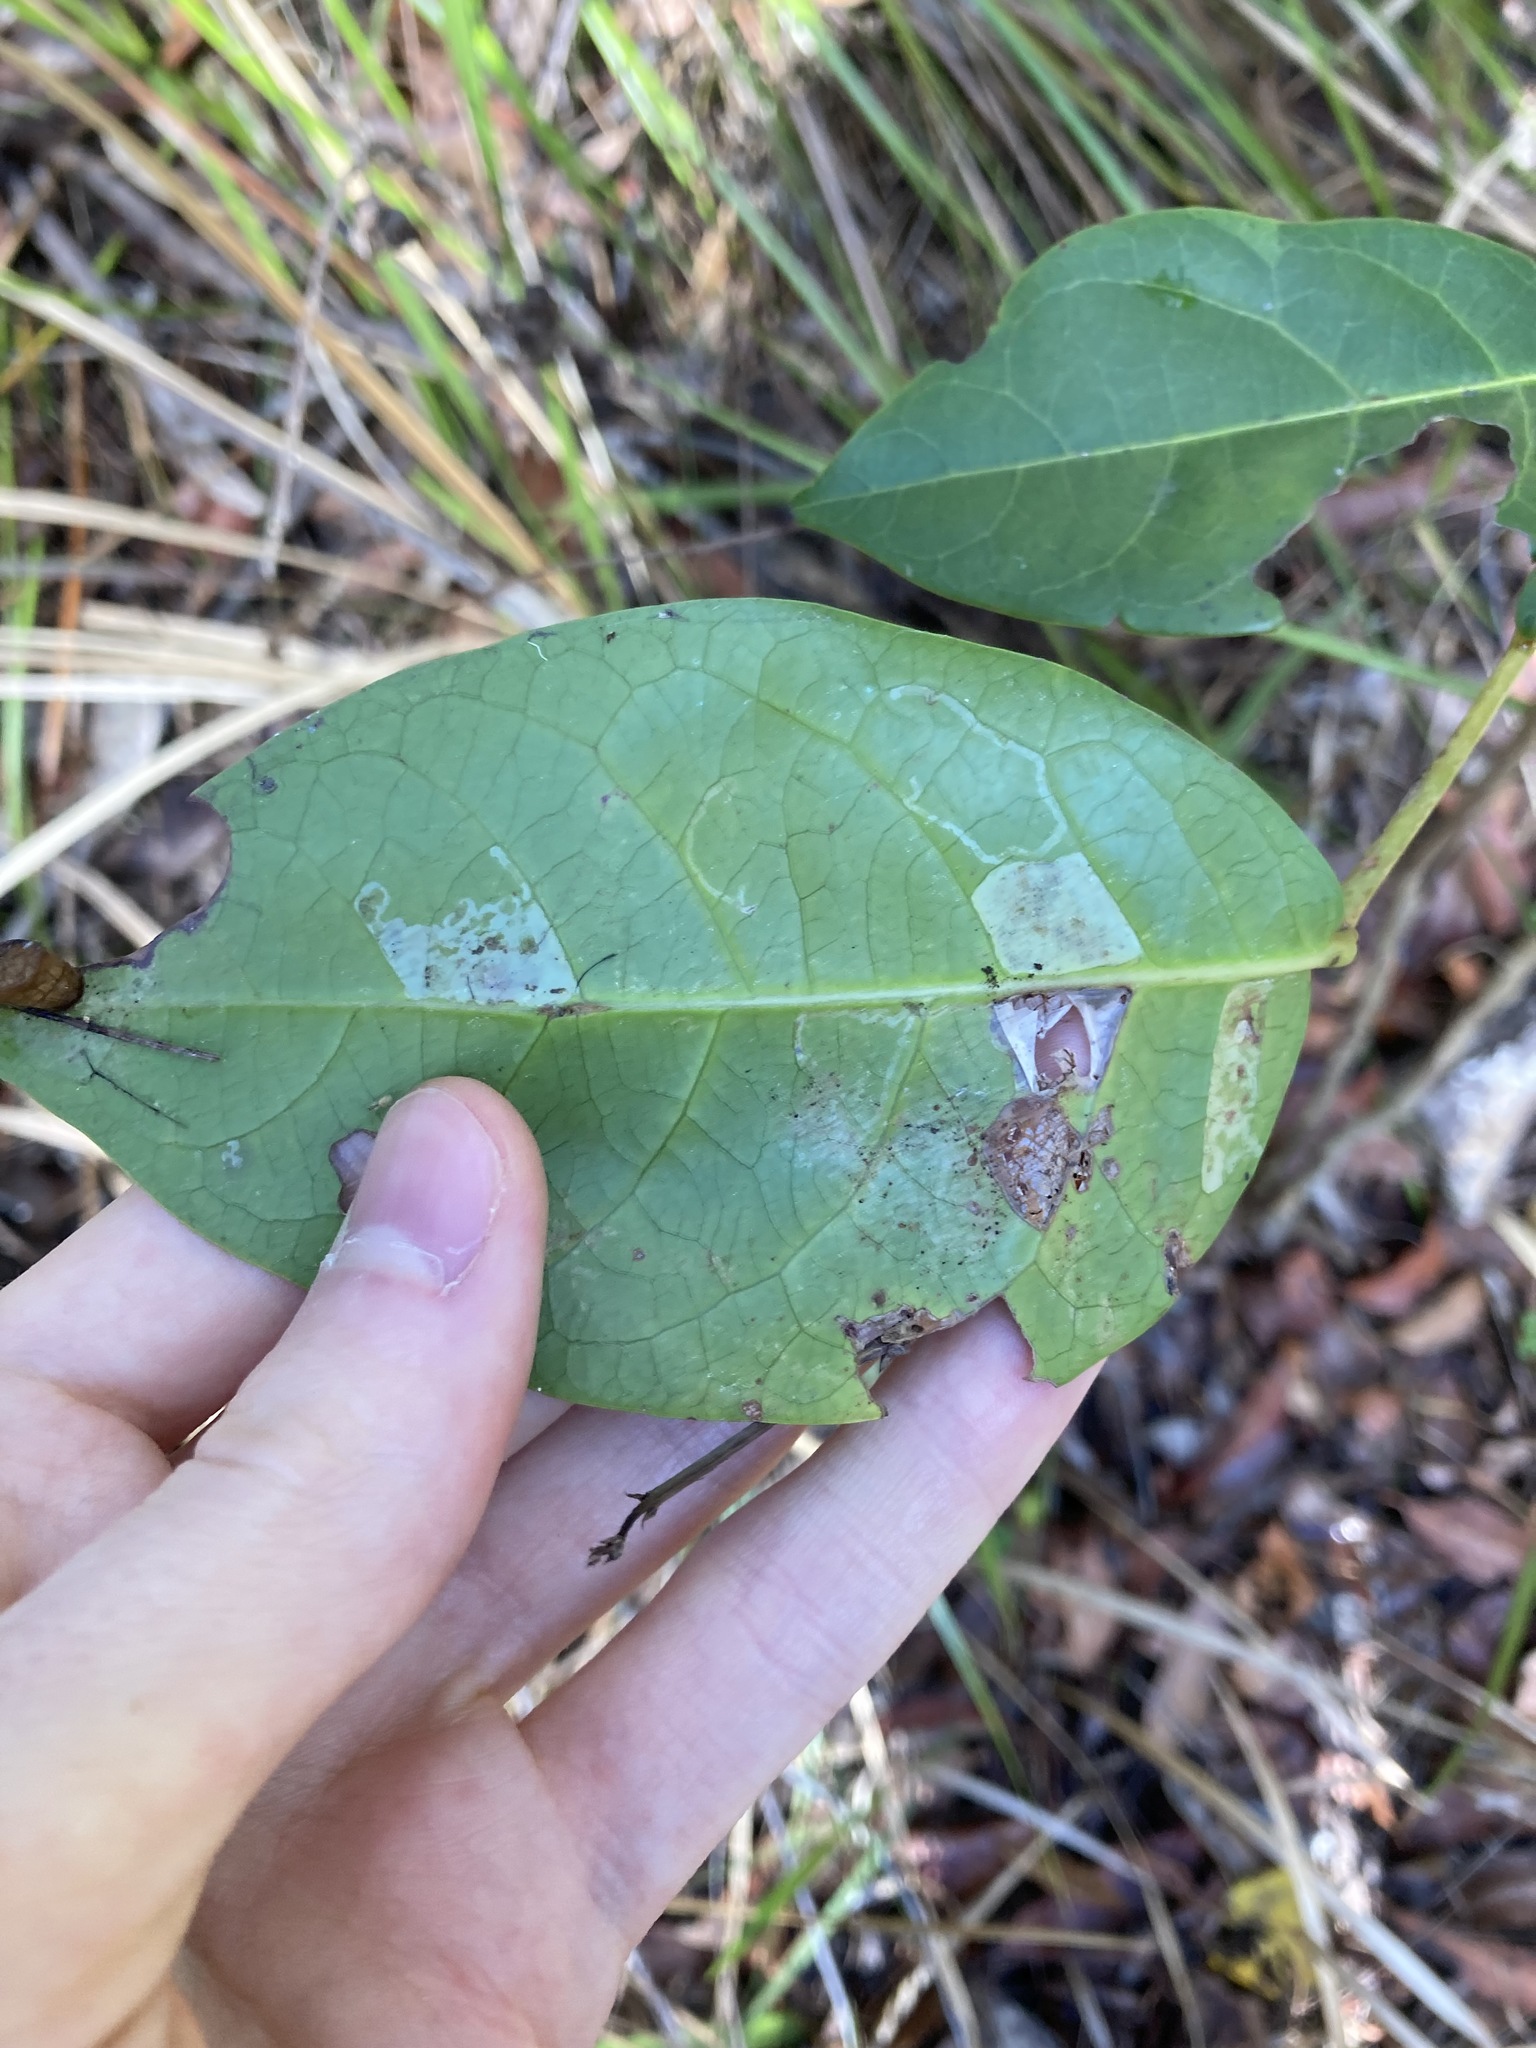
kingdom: Plantae
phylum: Tracheophyta
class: Magnoliopsida
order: Malpighiales
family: Phyllanthaceae
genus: Glochidion
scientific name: Glochidion ferdinandi
